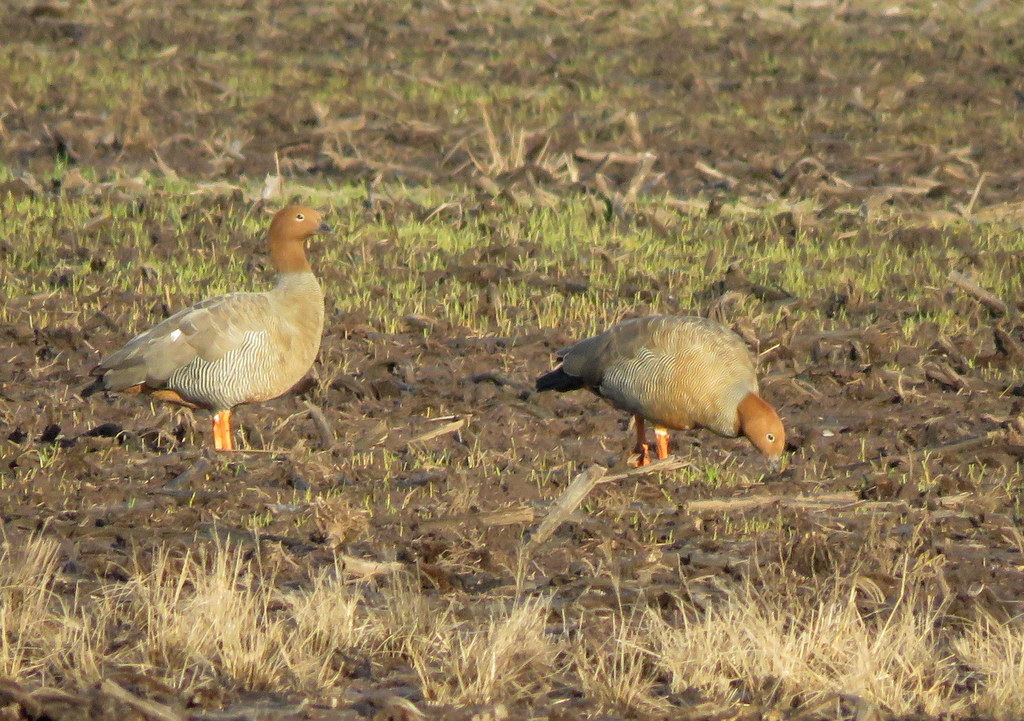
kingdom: Animalia
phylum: Chordata
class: Aves
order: Anseriformes
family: Anatidae
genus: Chloephaga
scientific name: Chloephaga rubidiceps
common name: Ruddy-headed goose
